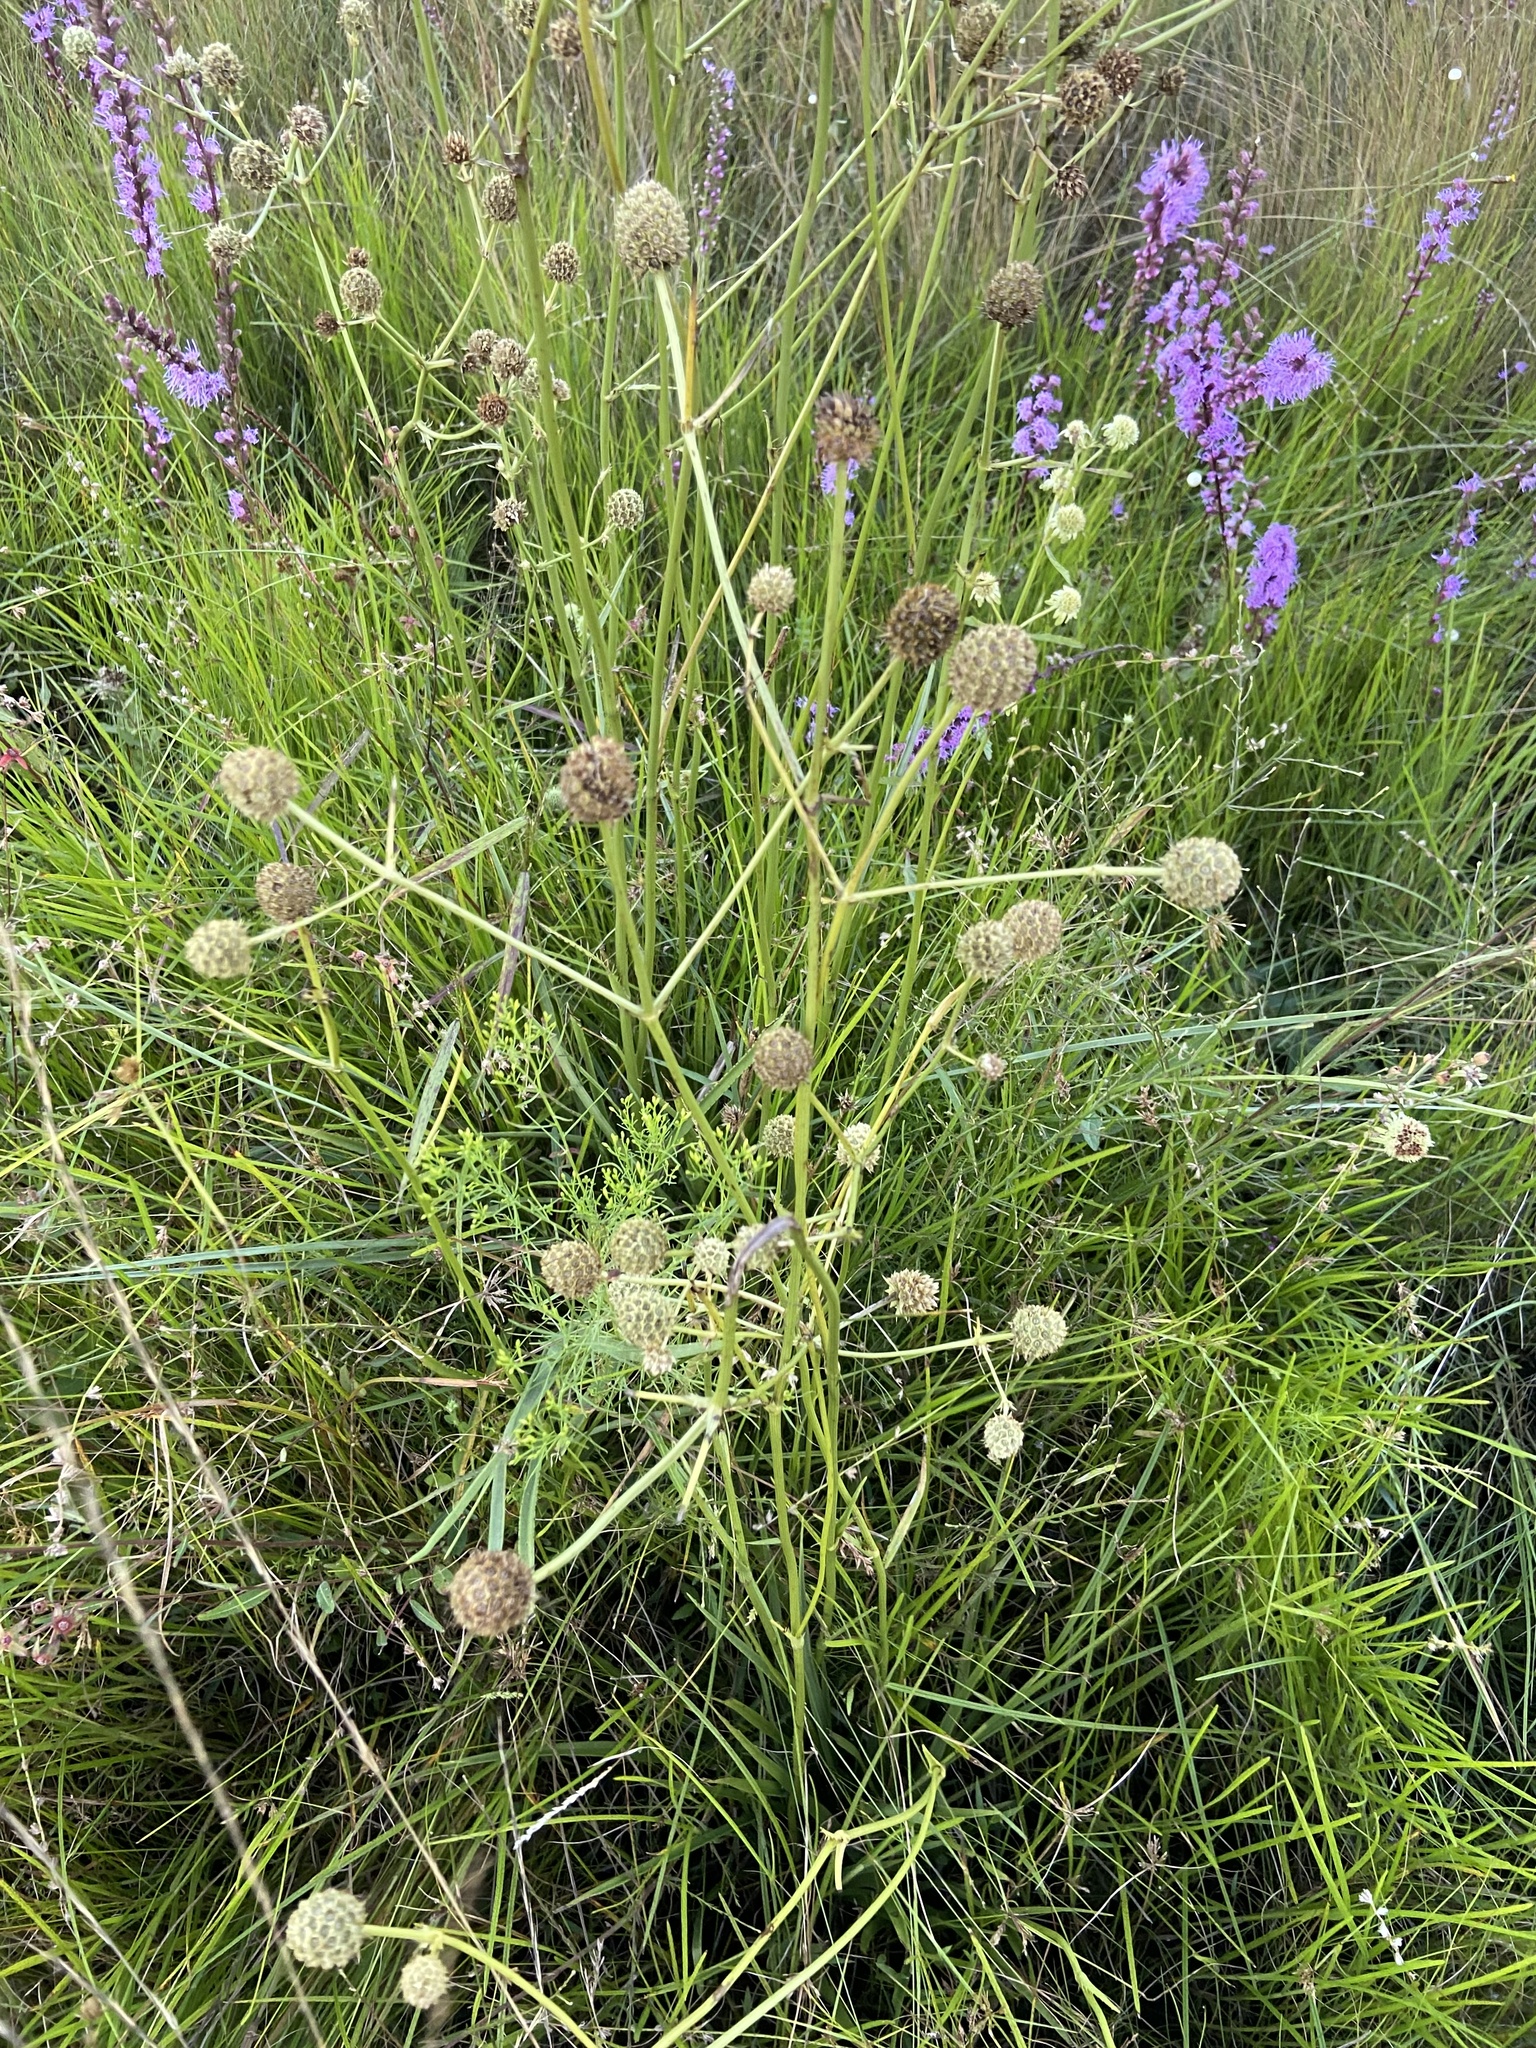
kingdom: Plantae
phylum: Tracheophyta
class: Magnoliopsida
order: Apiales
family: Apiaceae
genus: Eryngium
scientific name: Eryngium yuccifolium
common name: Button eryngo
